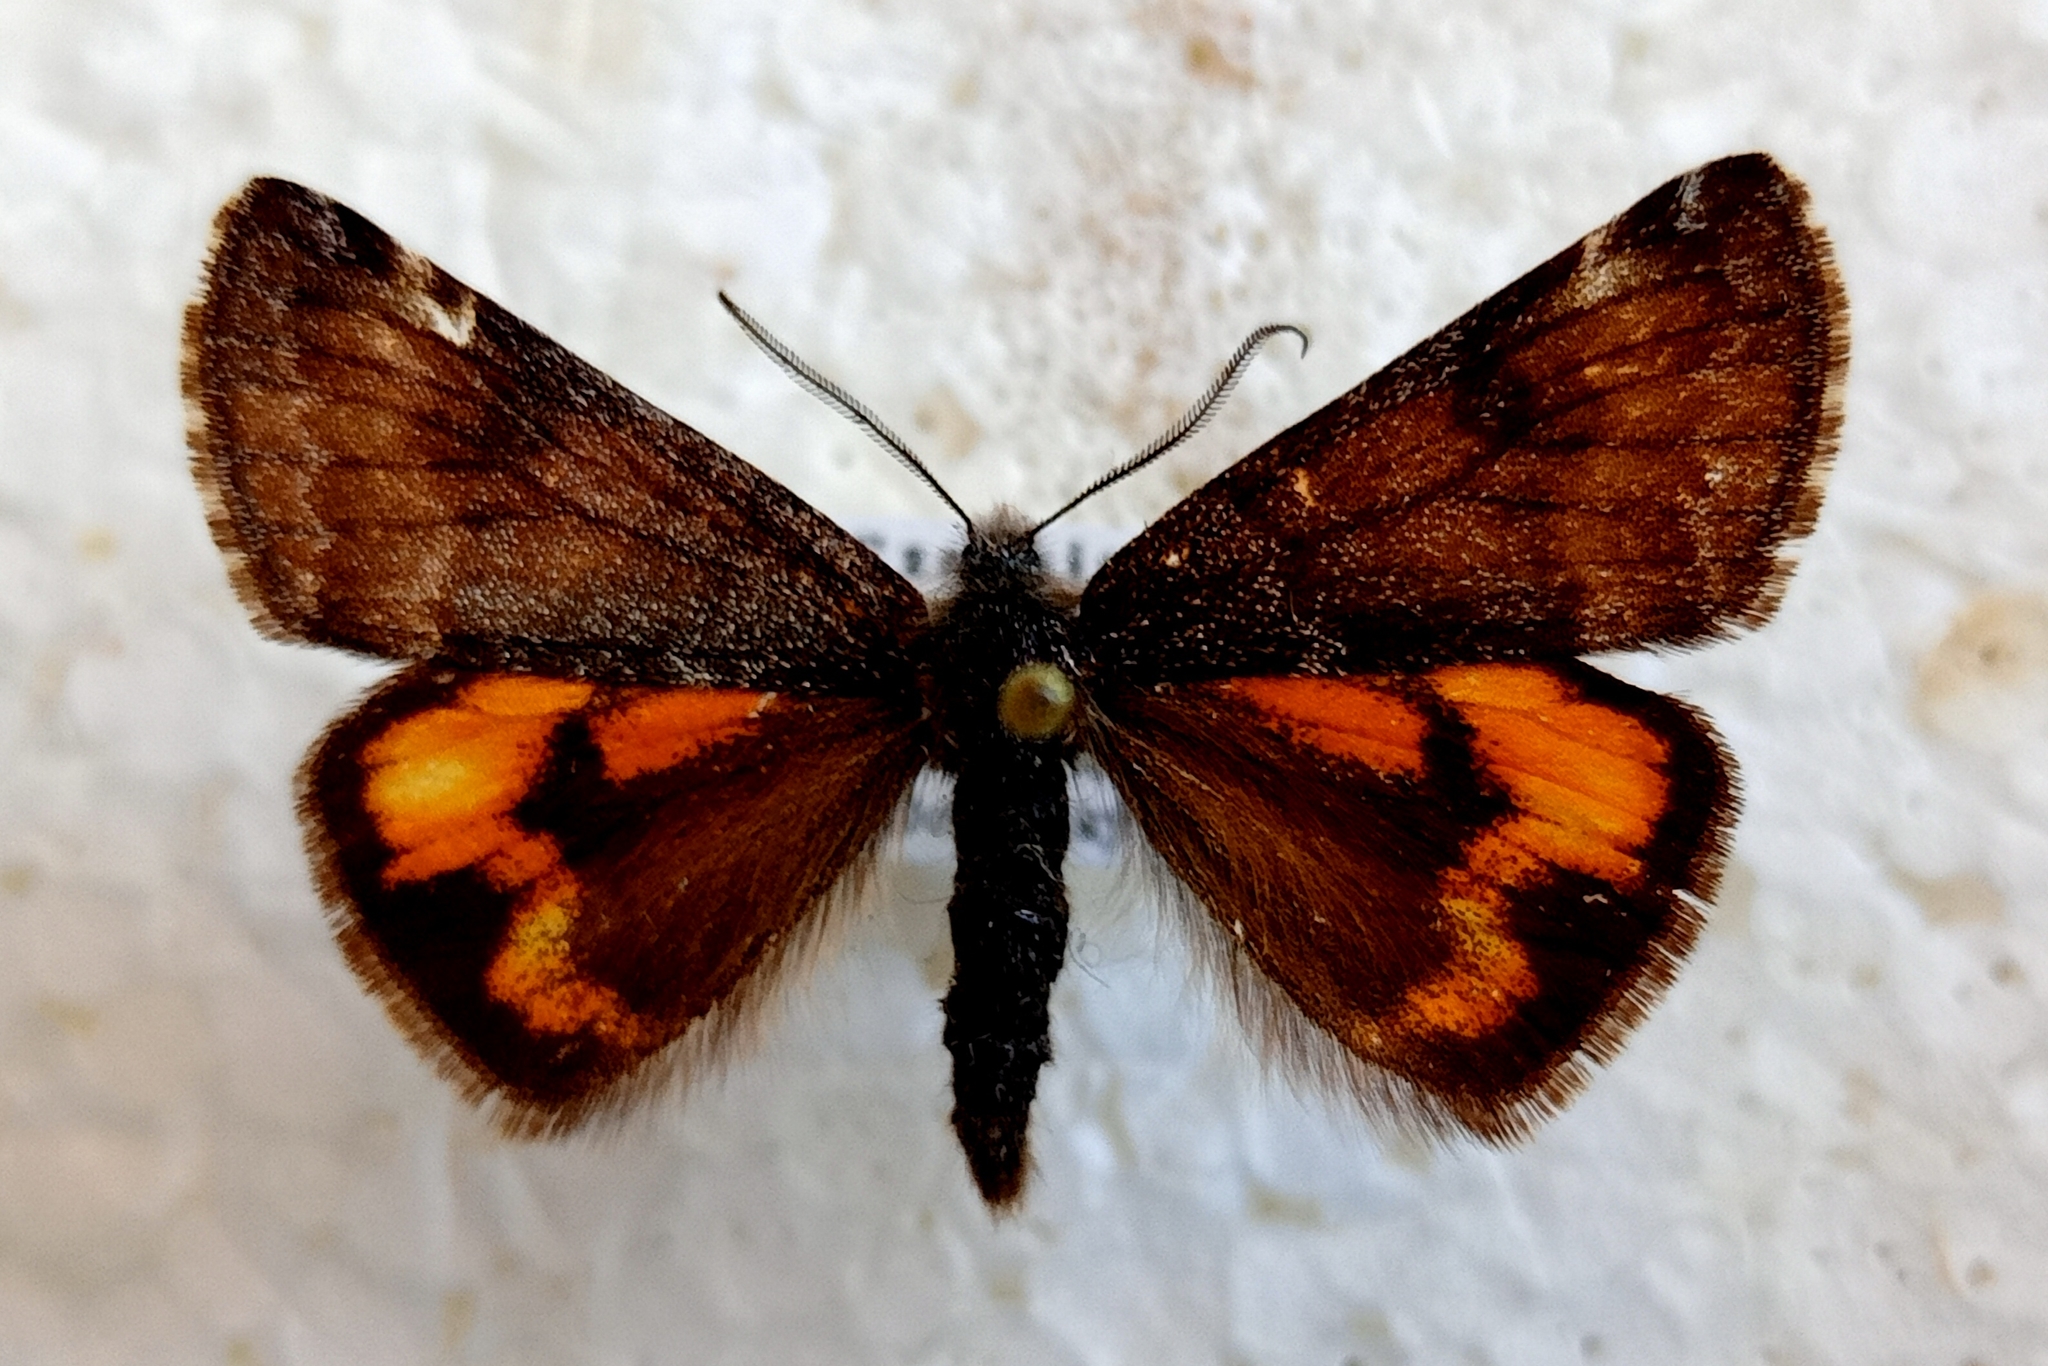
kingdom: Animalia
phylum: Arthropoda
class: Insecta
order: Lepidoptera
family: Geometridae
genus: Archiearis
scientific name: Archiearis notha
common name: Light orange underwing
